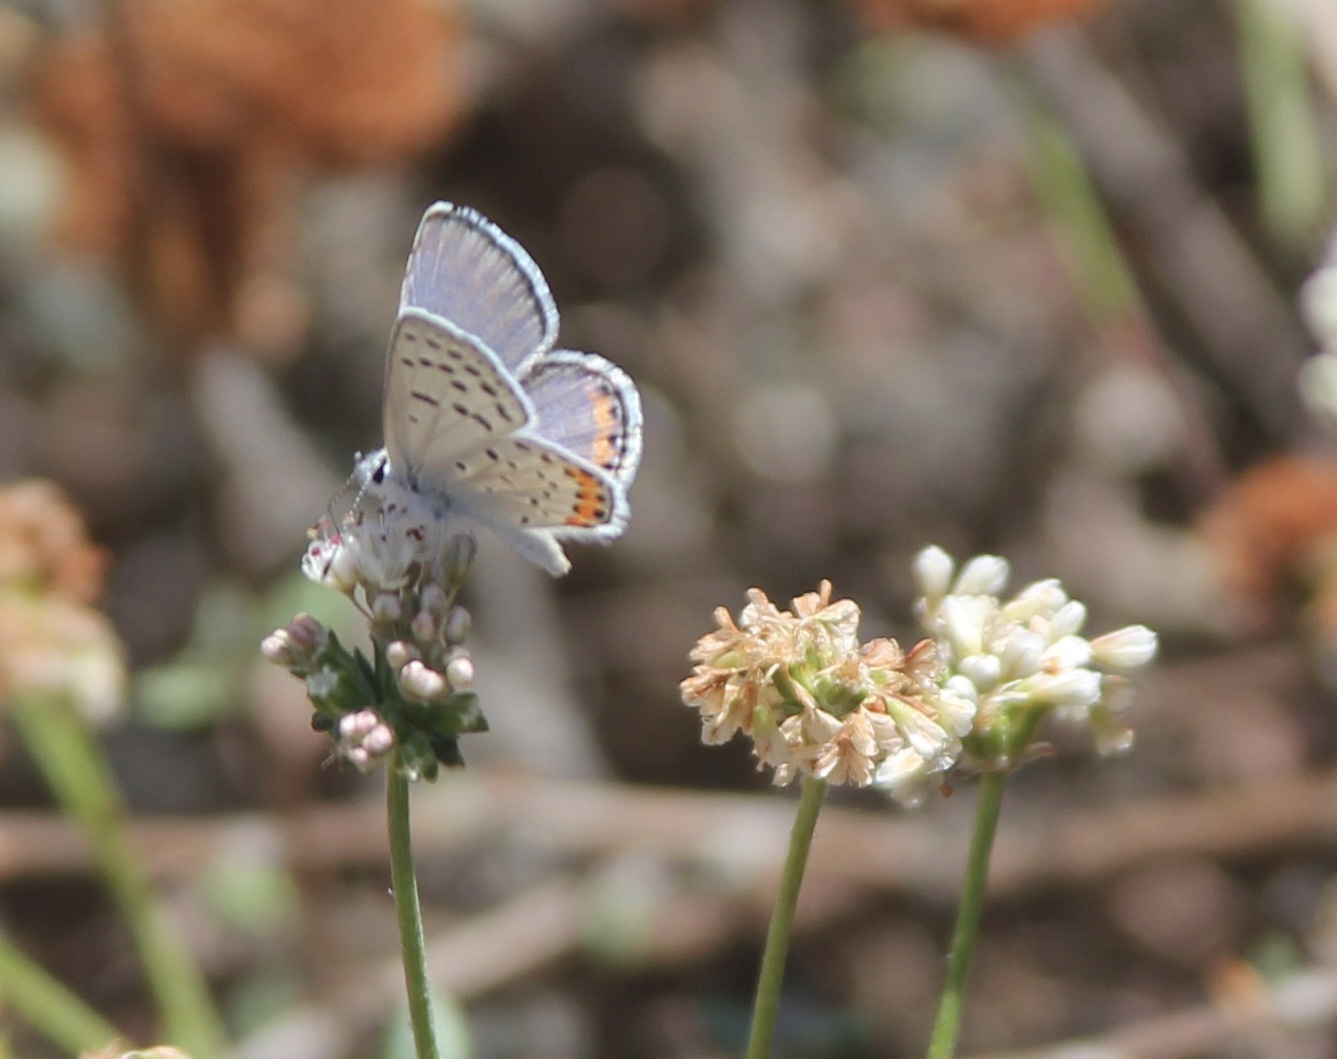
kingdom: Animalia
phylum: Arthropoda
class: Insecta
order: Lepidoptera
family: Lycaenidae
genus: Icaricia
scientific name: Icaricia acmon
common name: Acmon blue
